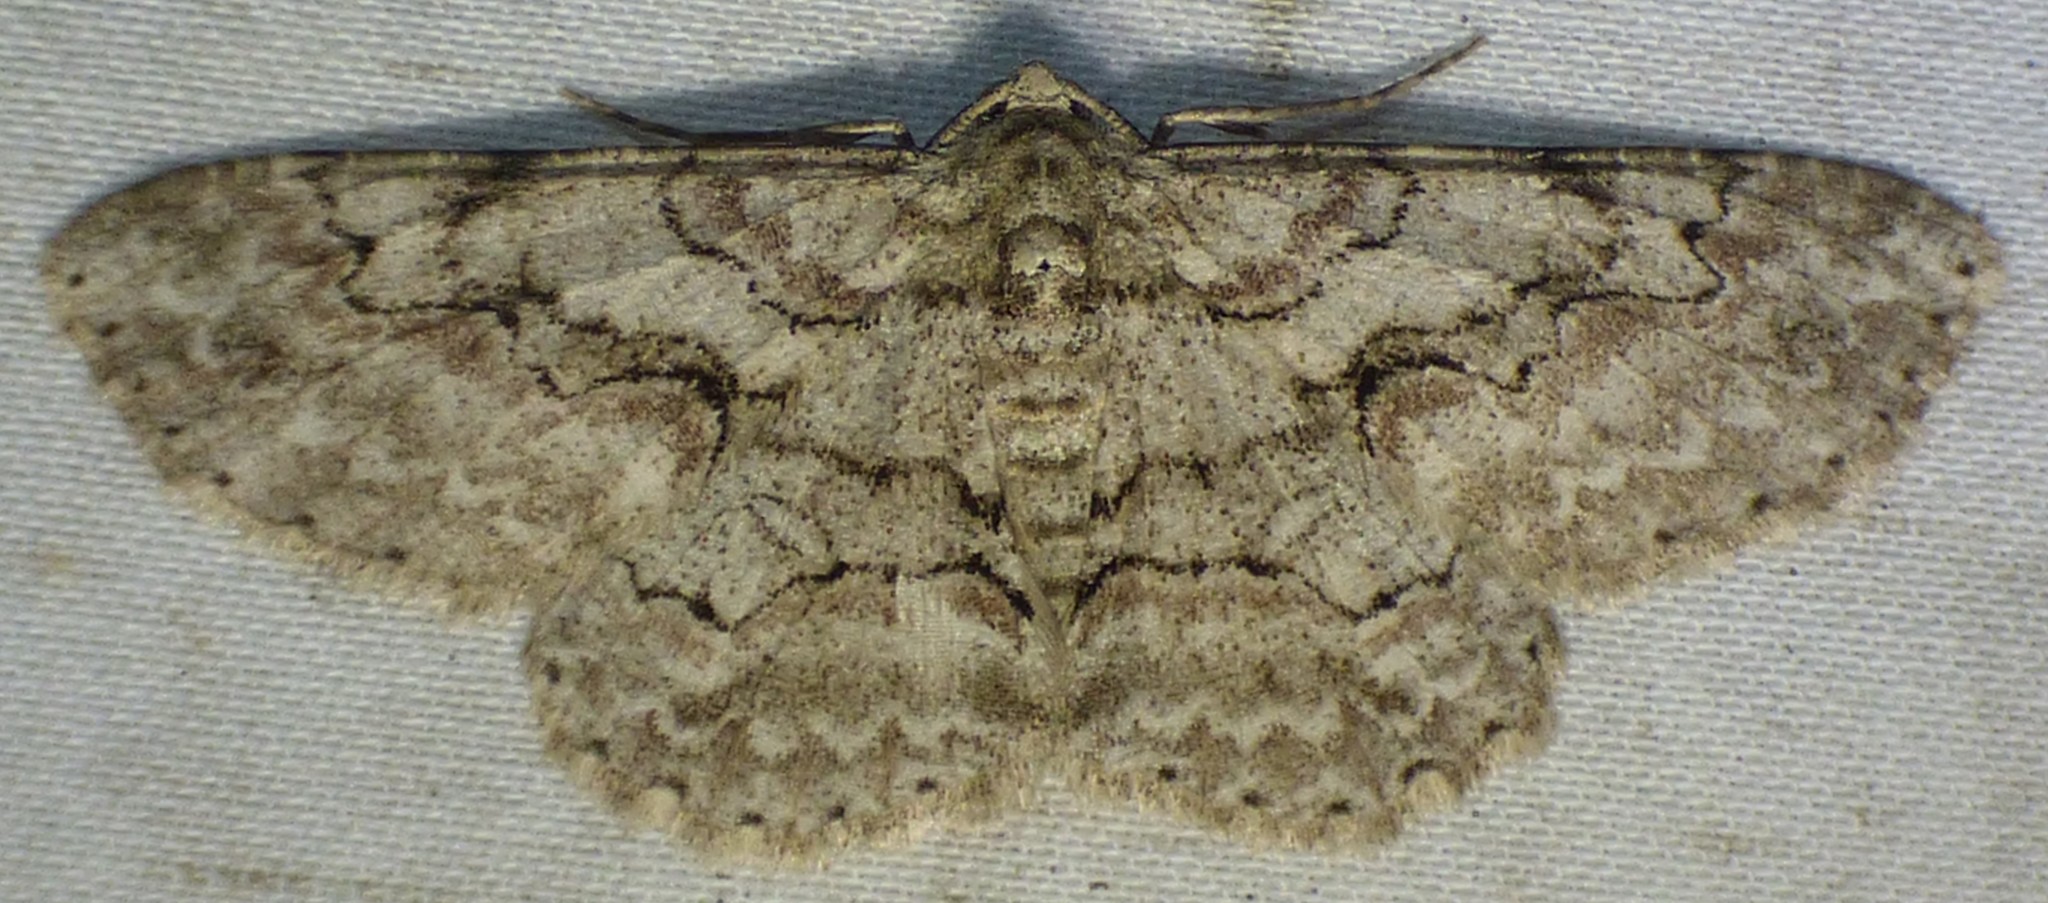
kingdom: Animalia
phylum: Arthropoda
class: Insecta
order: Lepidoptera
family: Geometridae
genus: Iridopsis
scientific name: Iridopsis defectaria
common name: Brown-shaded gray
